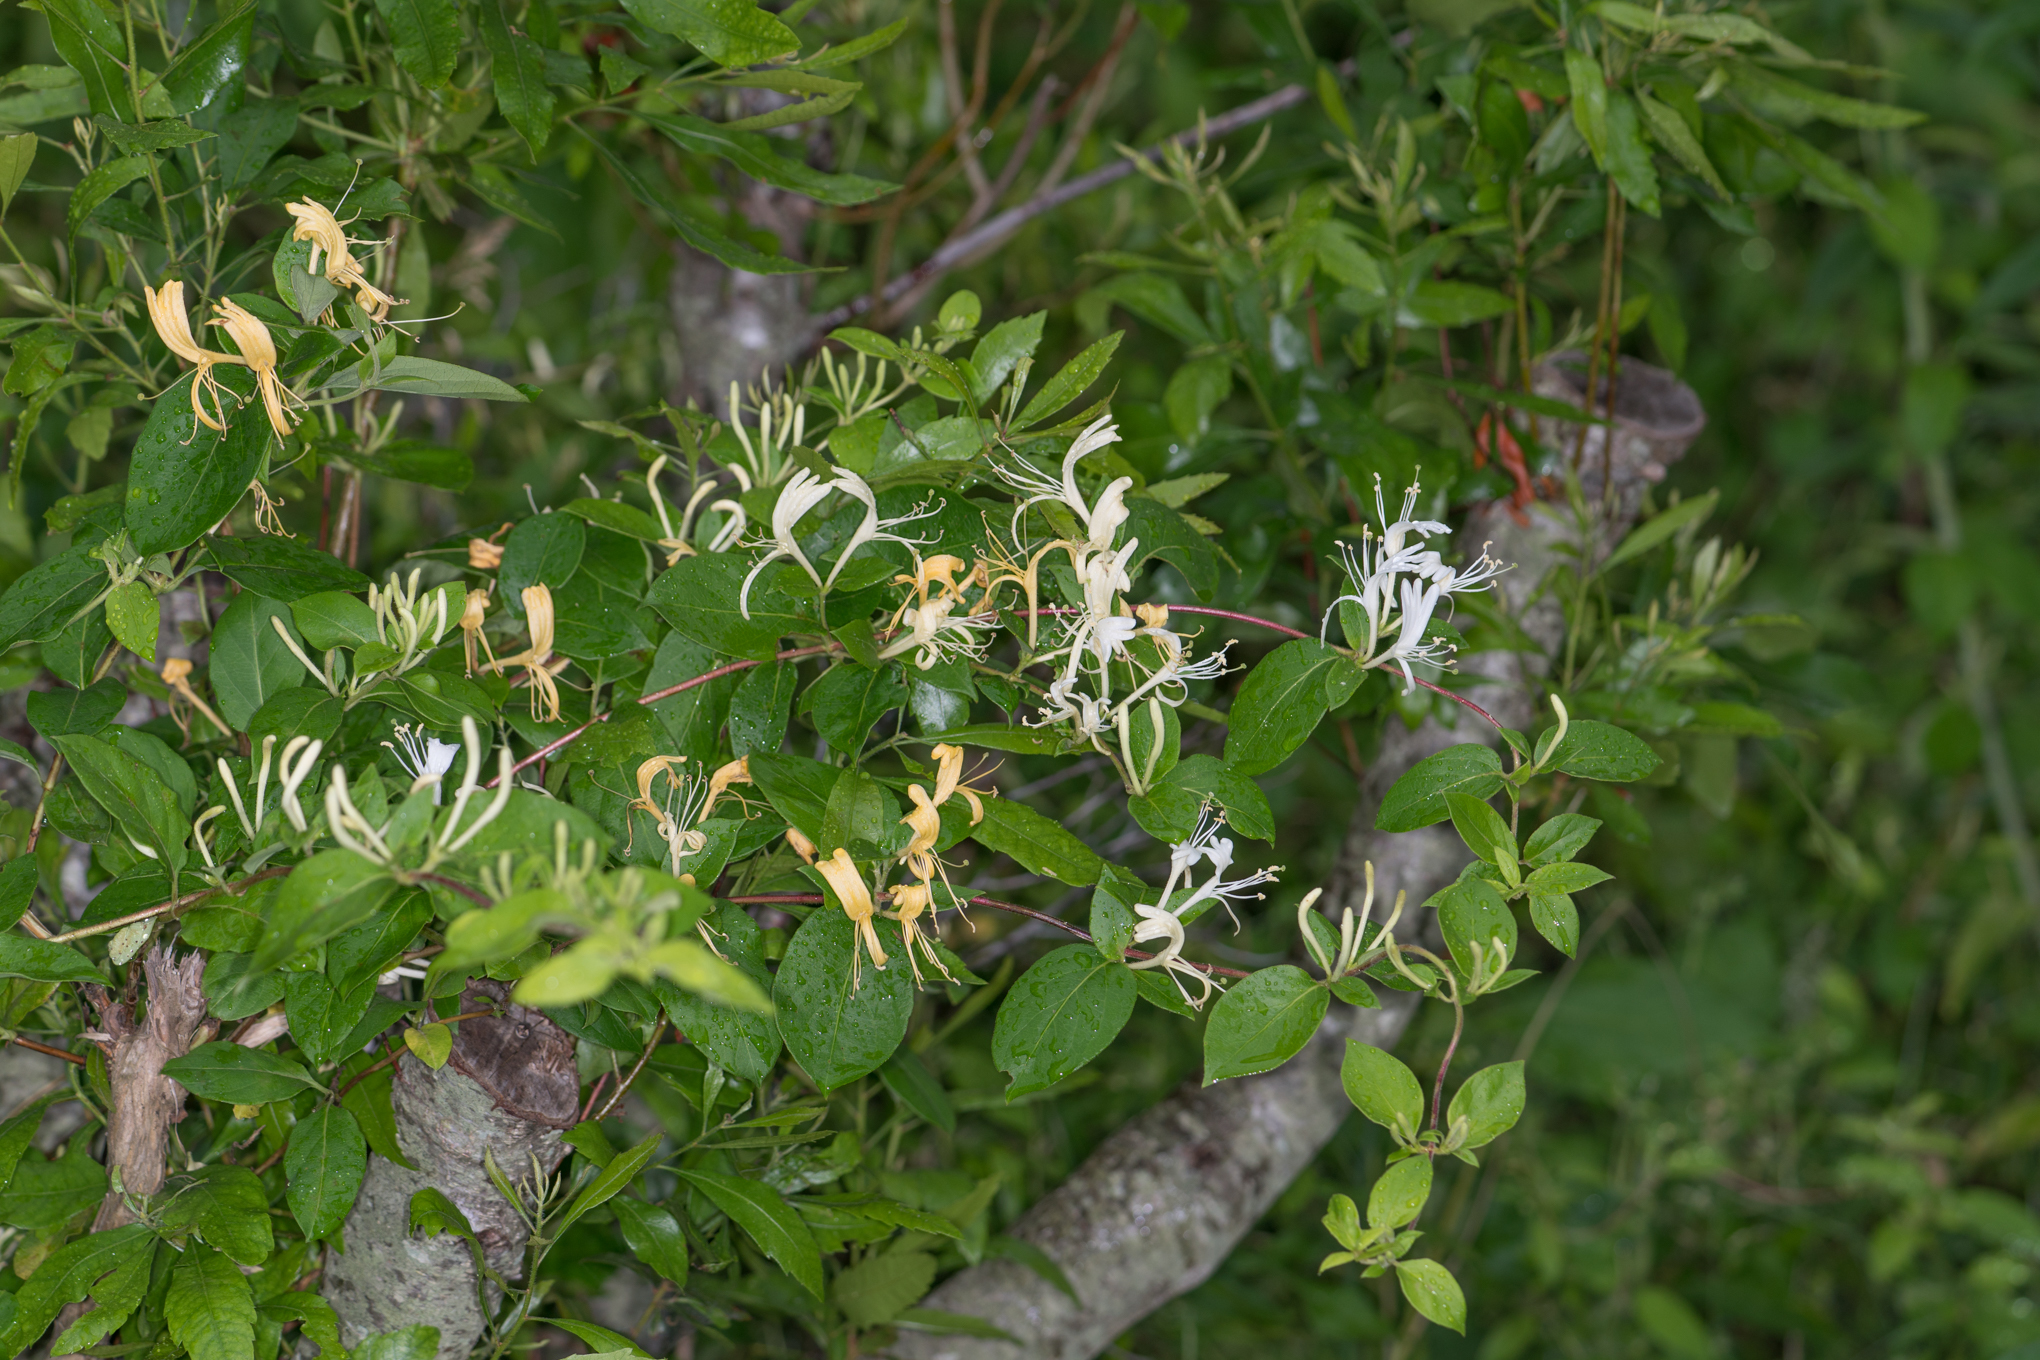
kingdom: Plantae
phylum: Tracheophyta
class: Magnoliopsida
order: Dipsacales
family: Caprifoliaceae
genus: Lonicera
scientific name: Lonicera japonica
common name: Japanese honeysuckle
